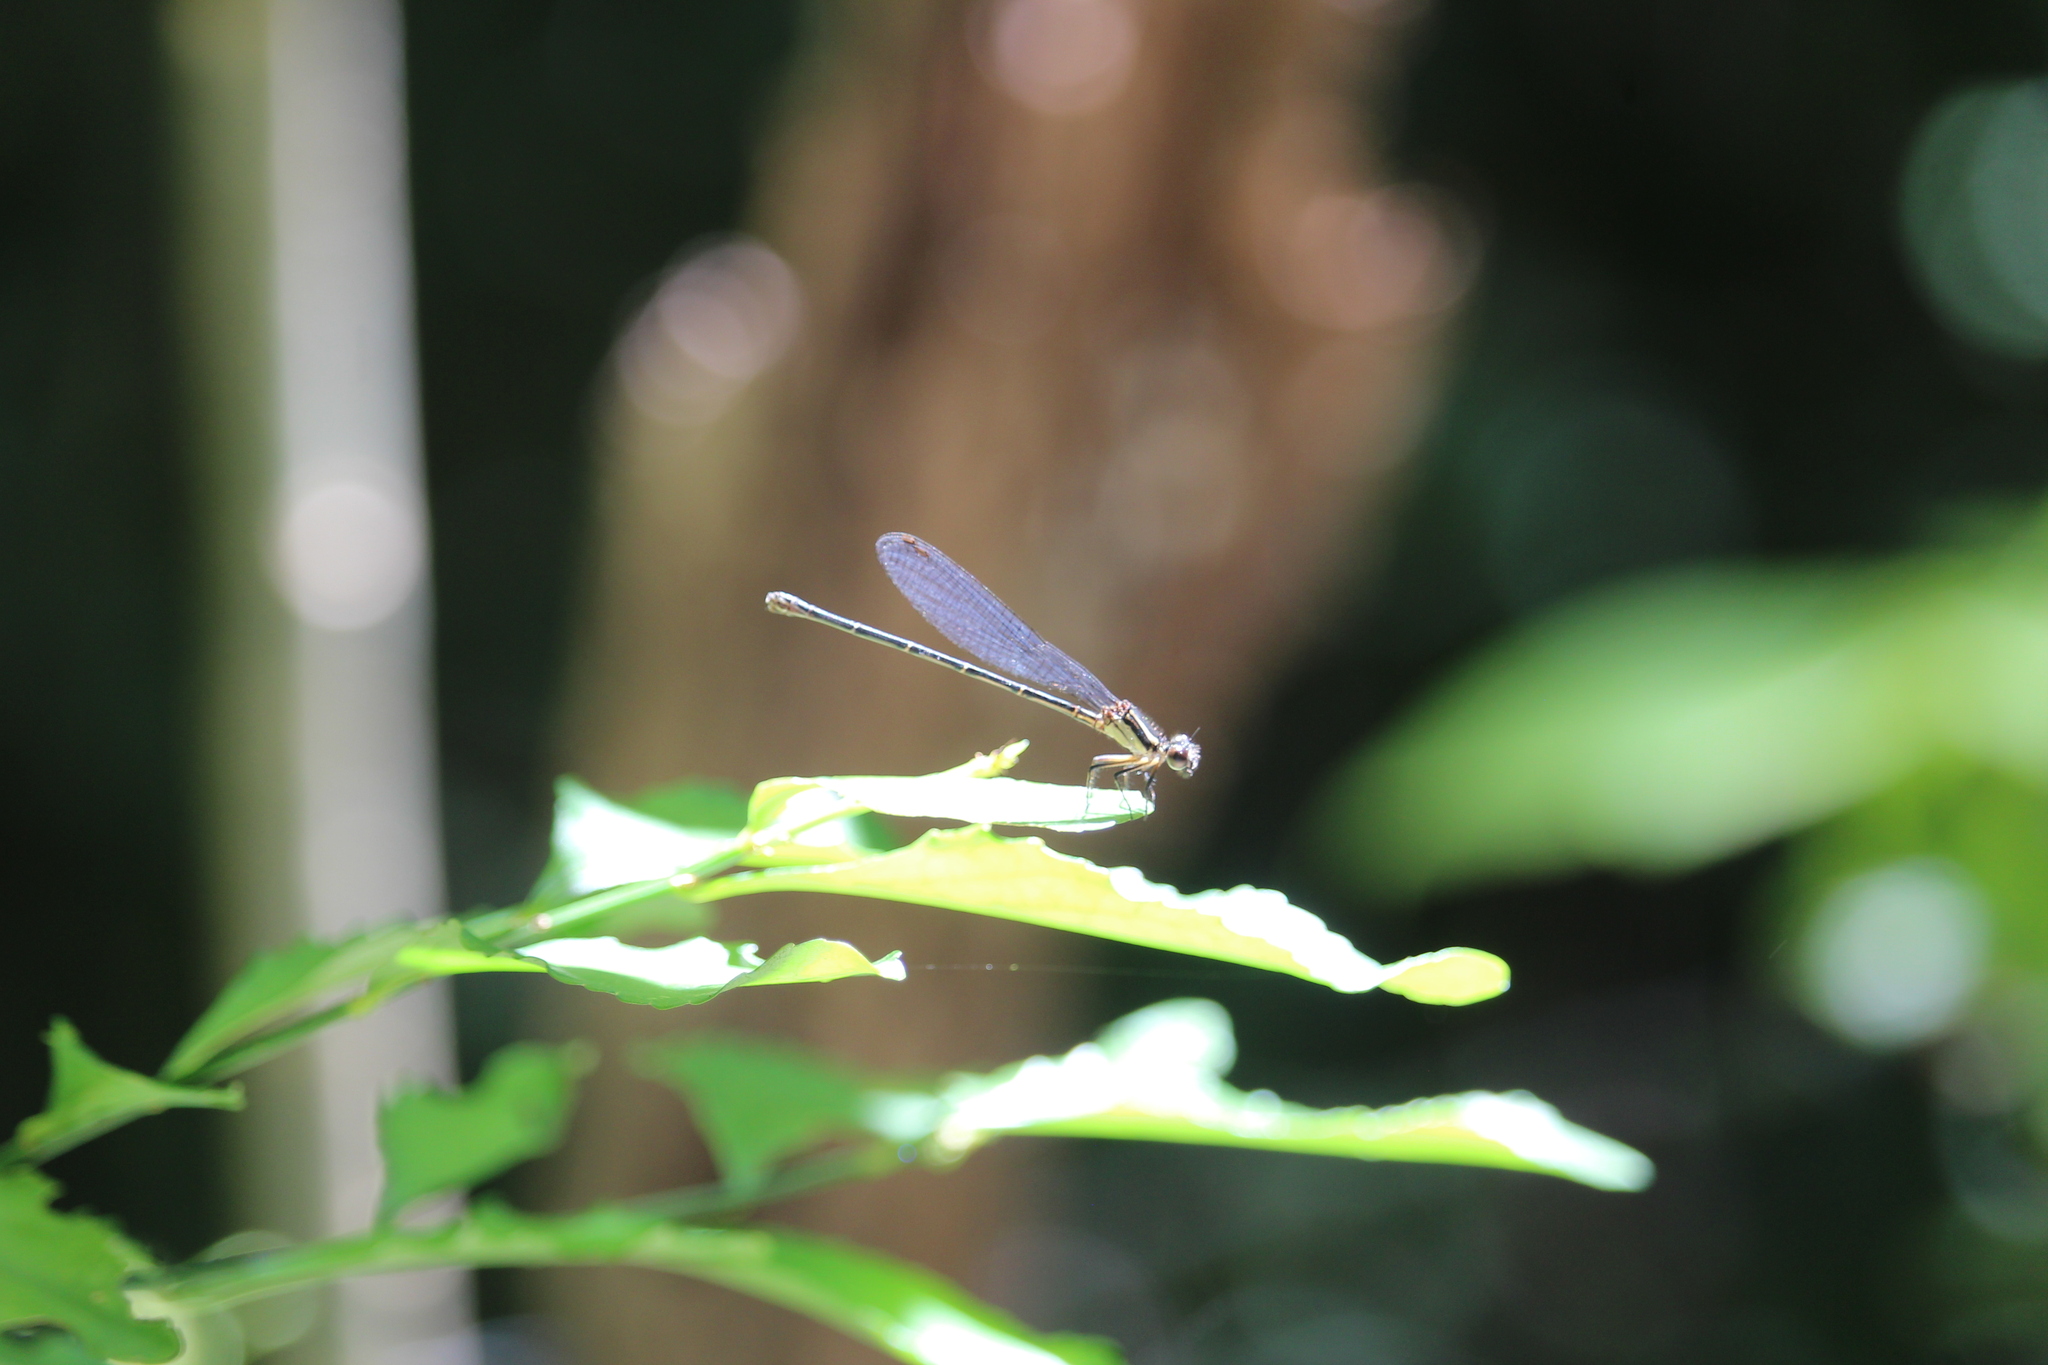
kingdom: Animalia
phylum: Arthropoda
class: Insecta
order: Odonata
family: Coenagrionidae
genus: Argia
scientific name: Argia translata
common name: Dusky dancer
